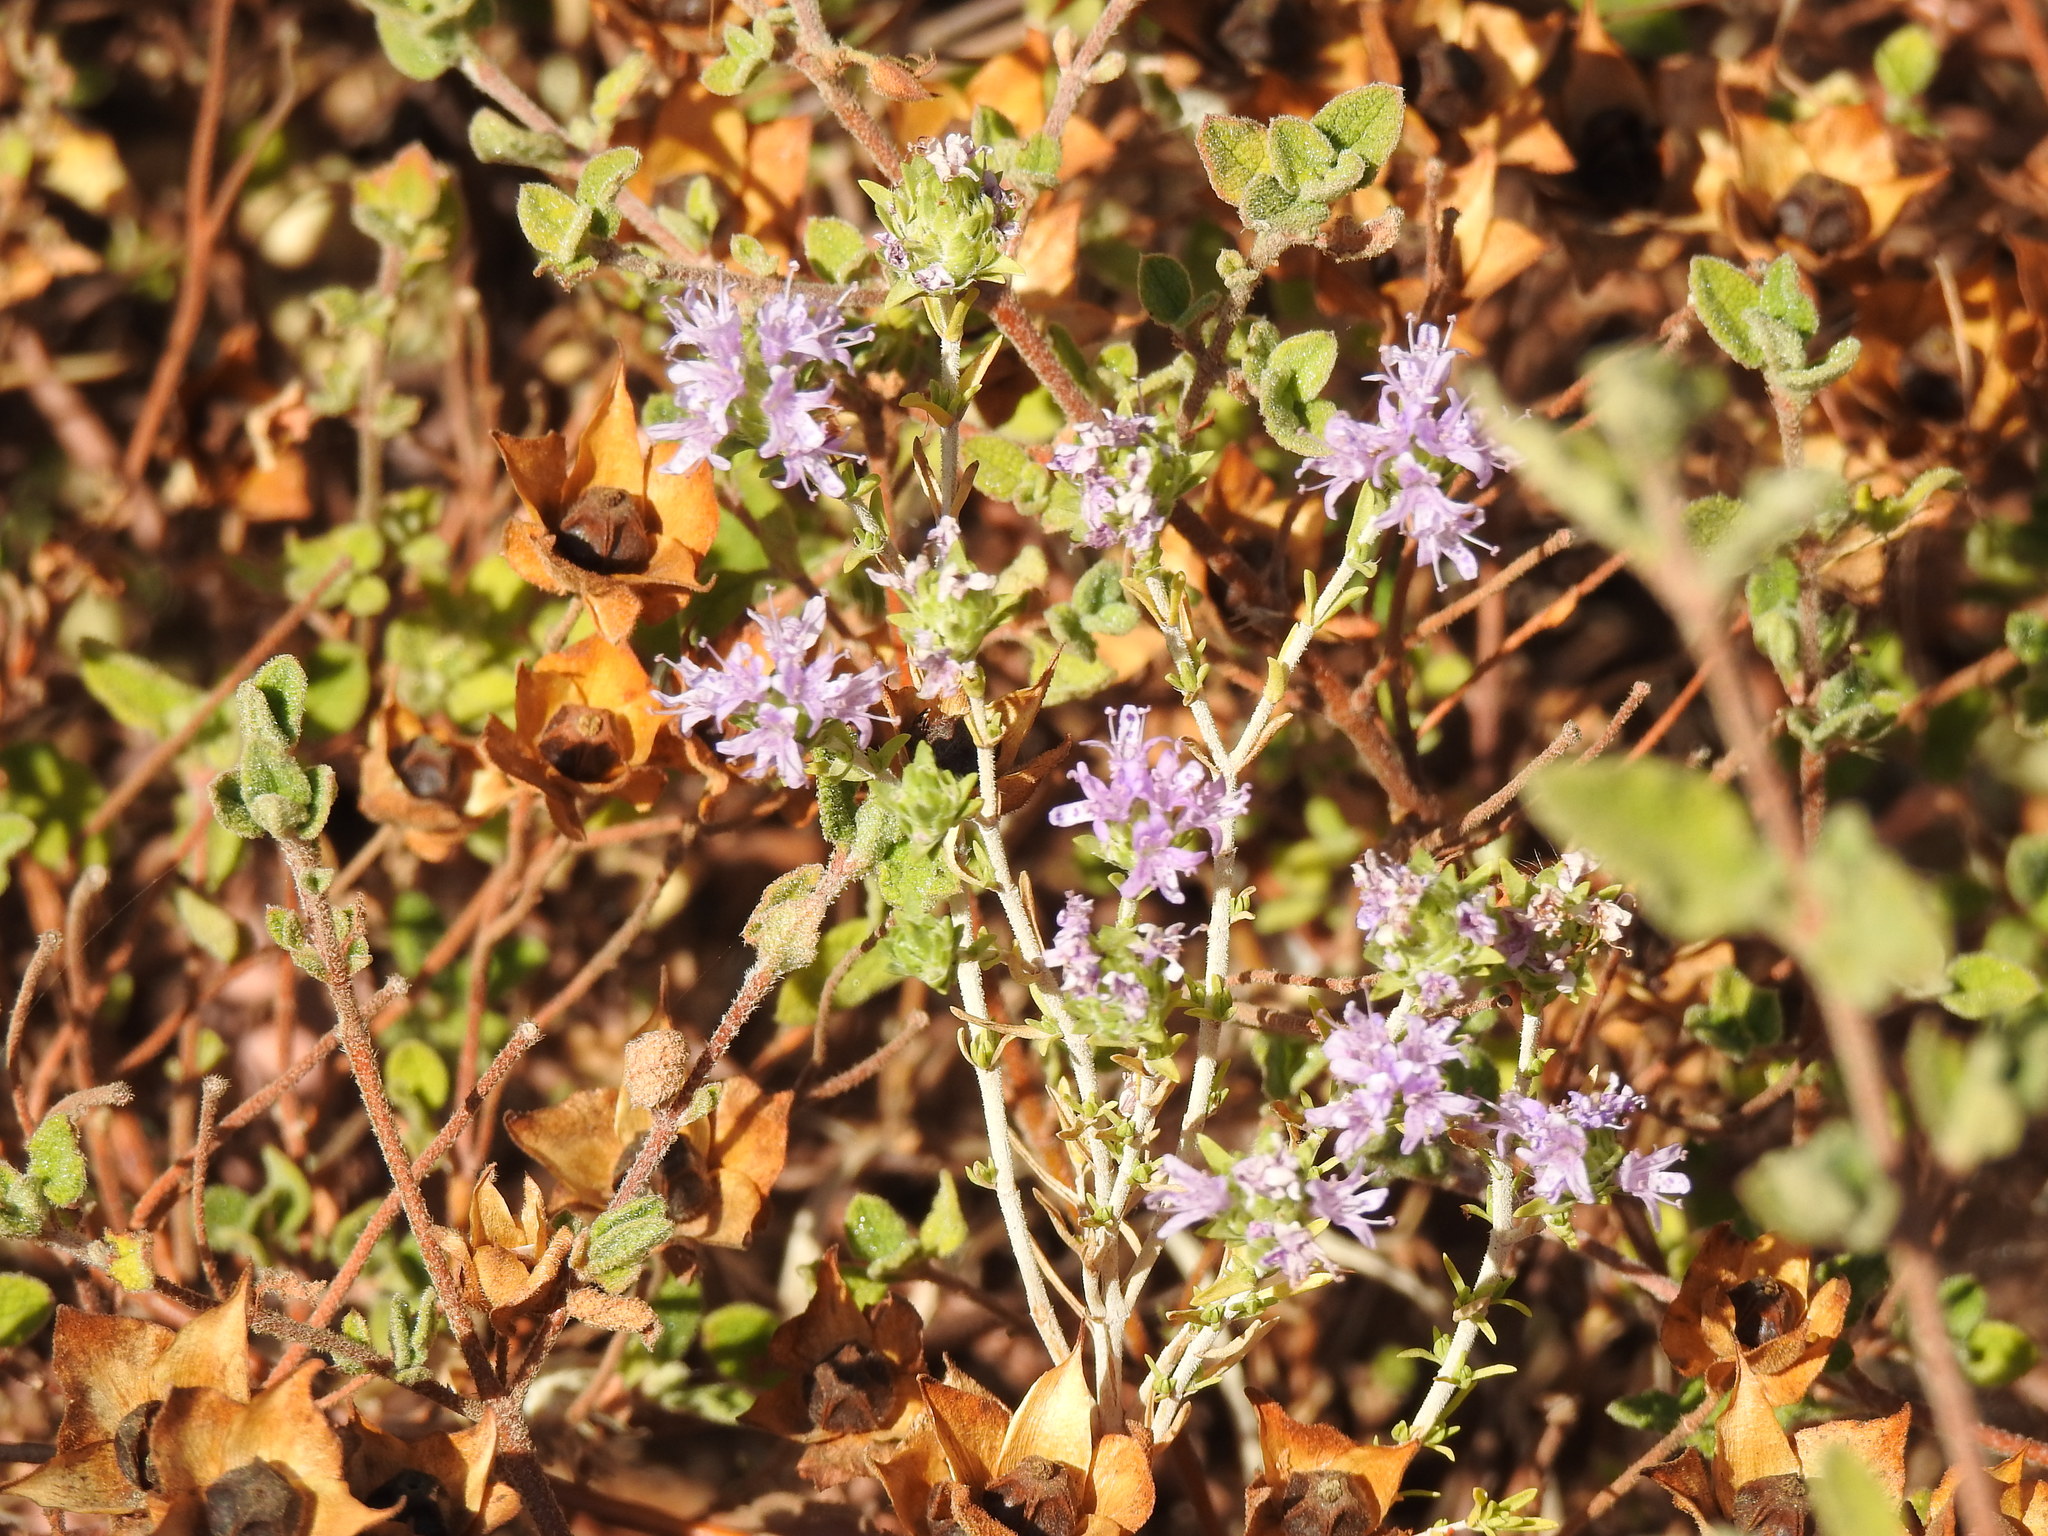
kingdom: Plantae
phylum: Tracheophyta
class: Magnoliopsida
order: Lamiales
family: Lamiaceae
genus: Thymbra
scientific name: Thymbra capitata
